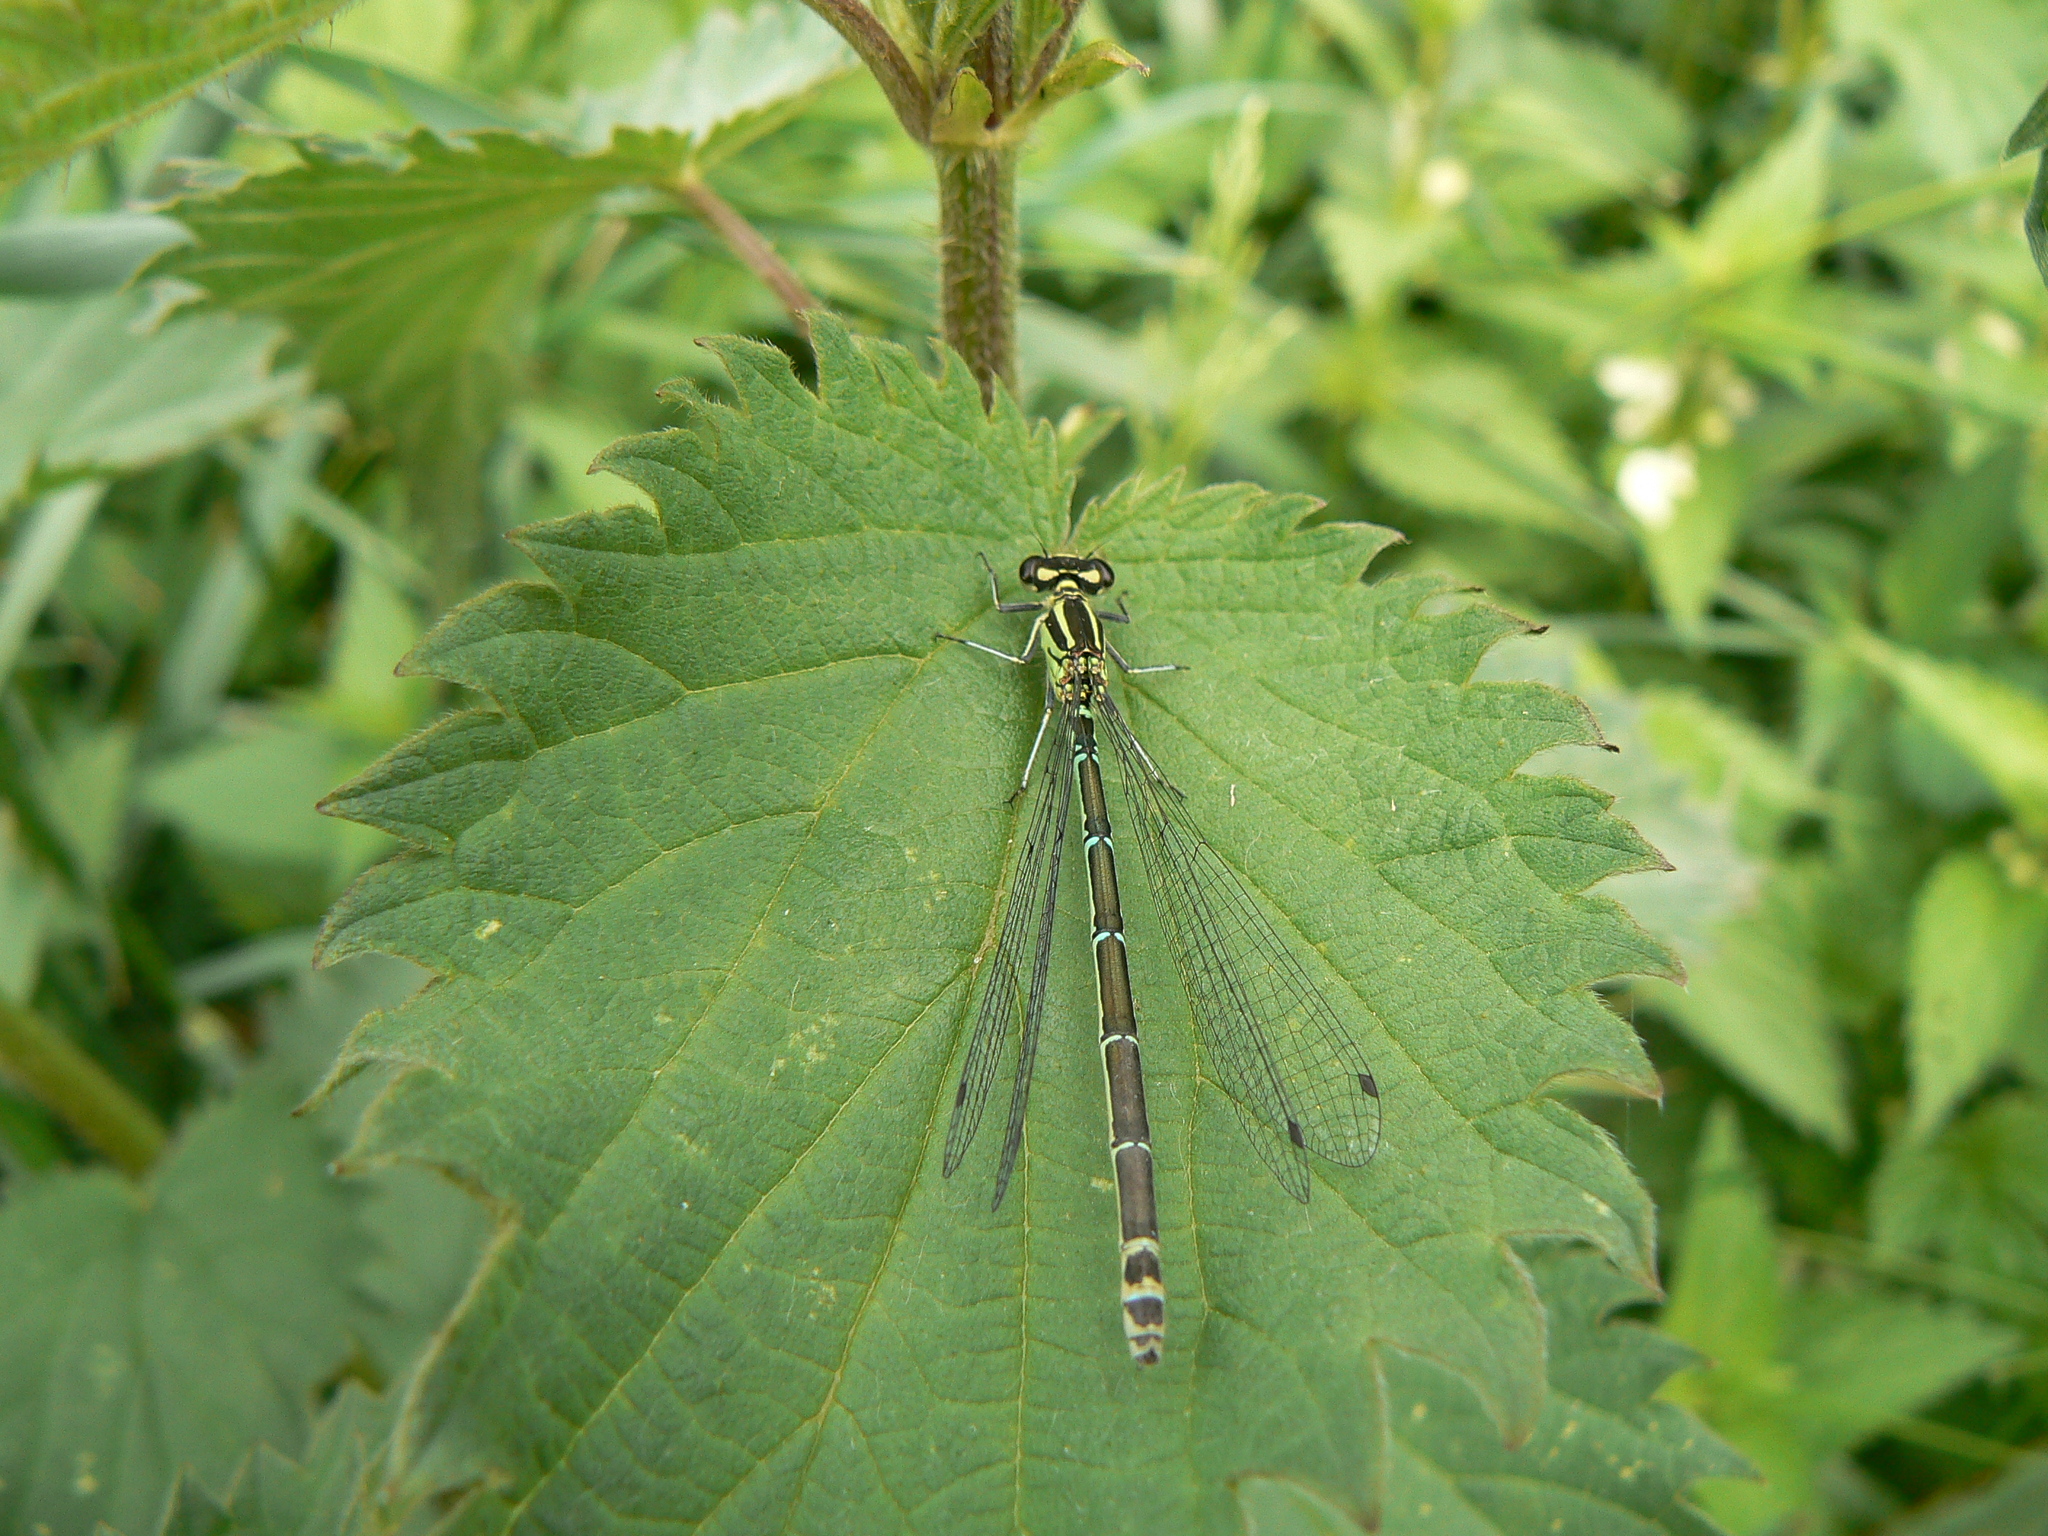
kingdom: Animalia
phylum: Arthropoda
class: Insecta
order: Odonata
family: Coenagrionidae
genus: Coenagrion
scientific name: Coenagrion puella
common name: Azure damselfly
